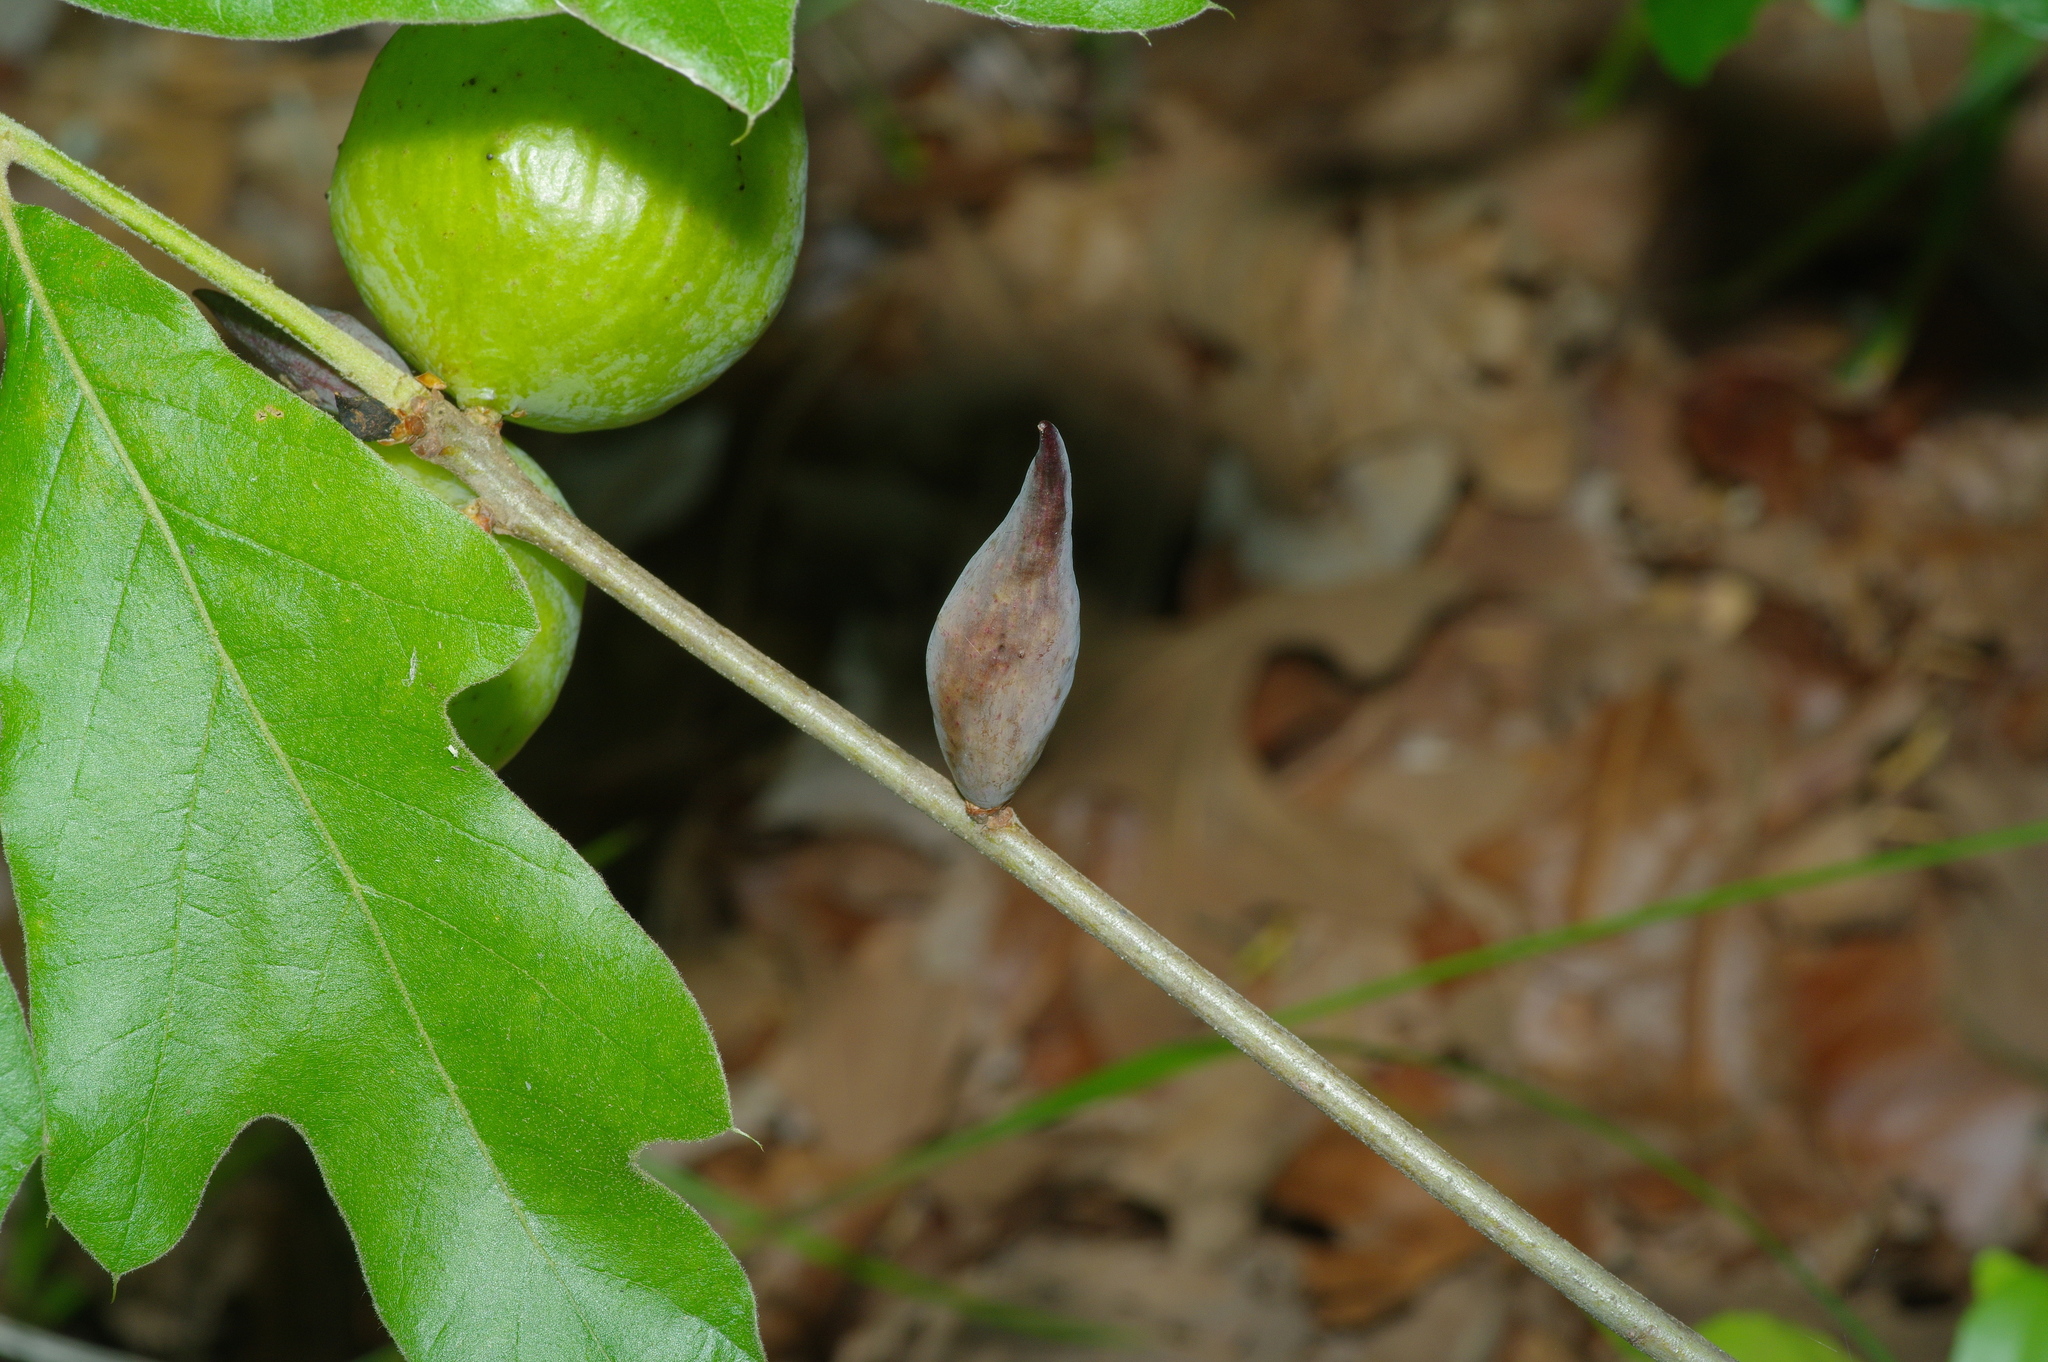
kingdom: Animalia
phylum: Arthropoda
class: Insecta
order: Hymenoptera
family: Cynipidae
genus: Amphibolips
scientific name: Amphibolips
